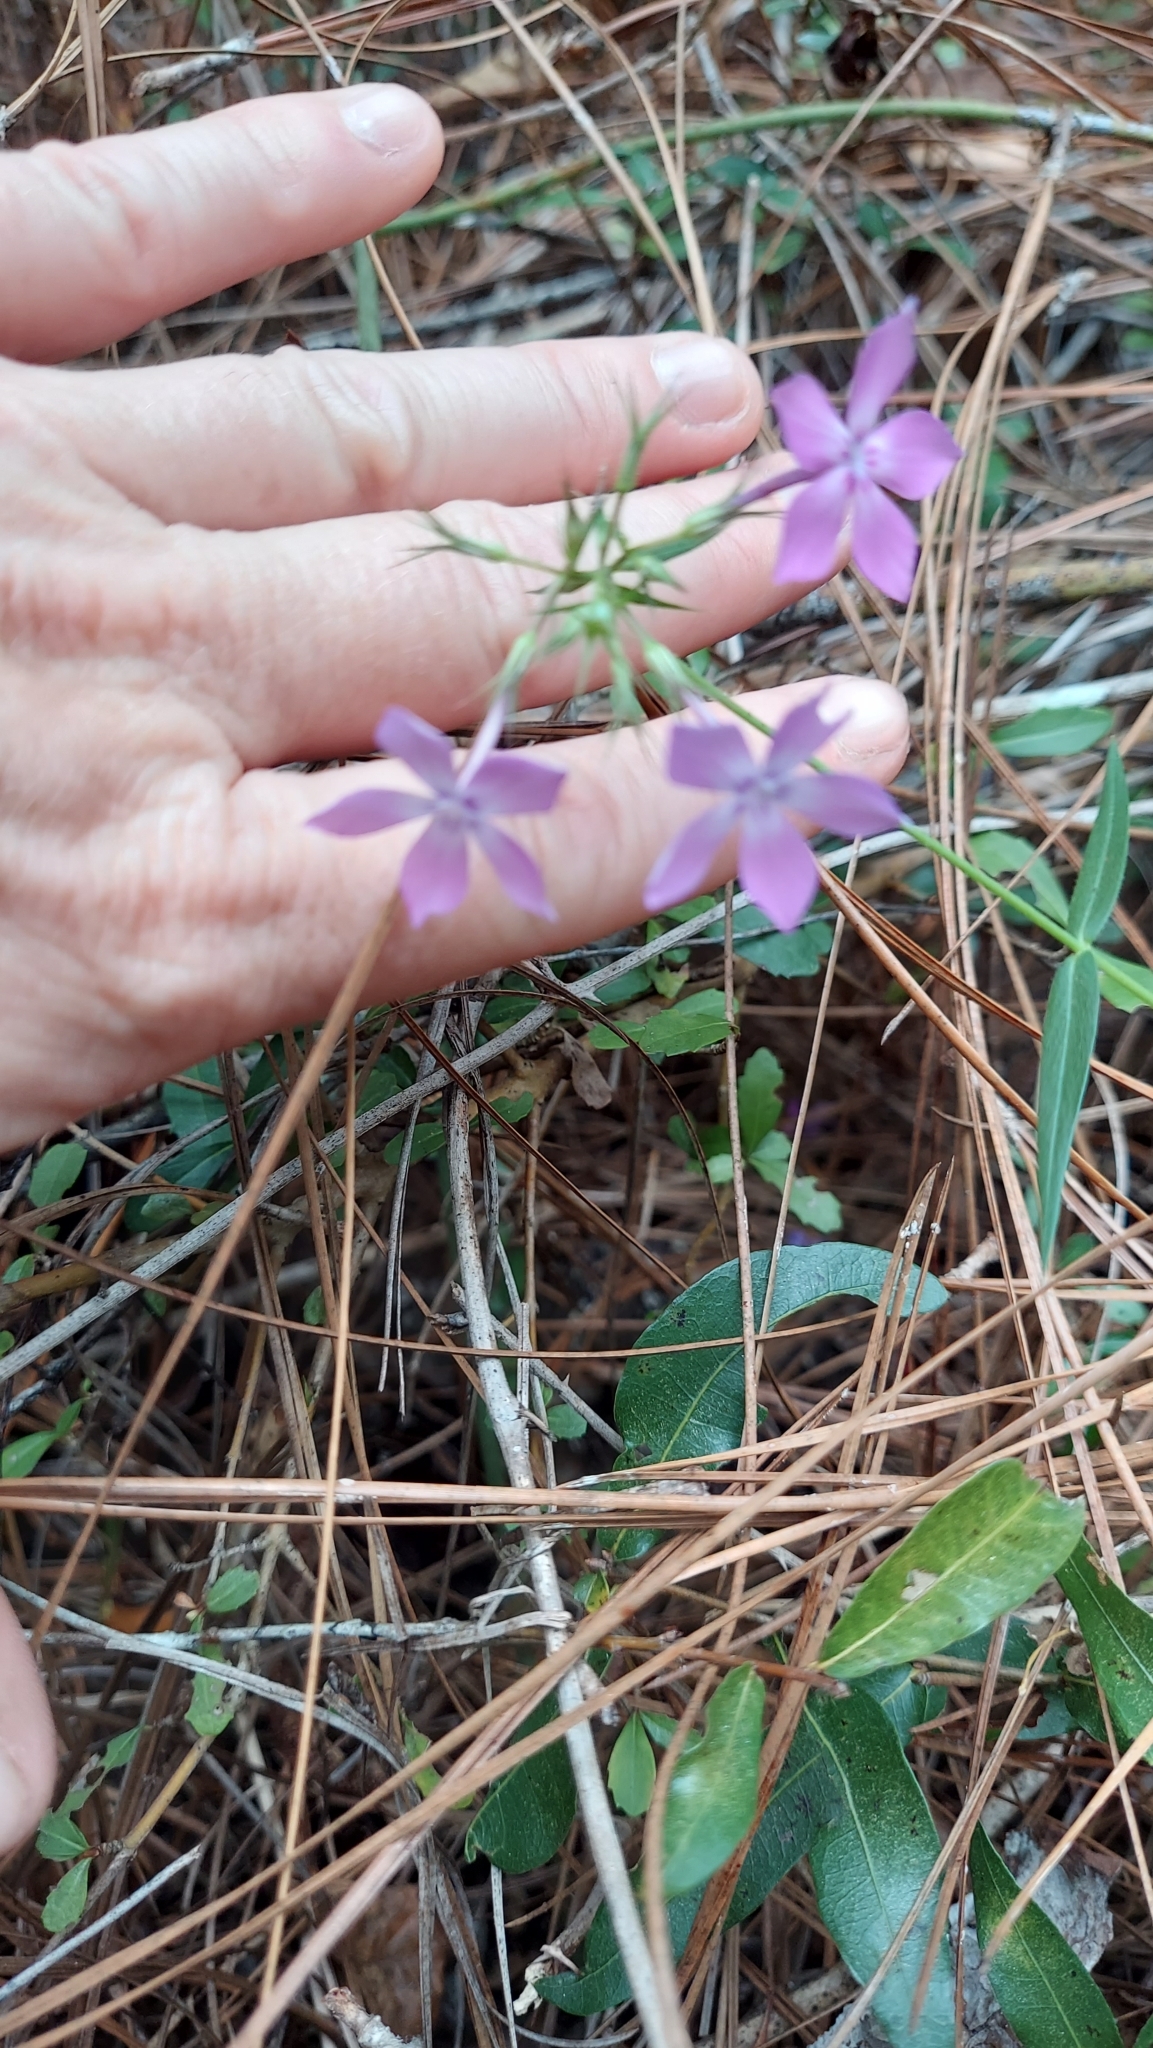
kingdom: Plantae
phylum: Tracheophyta
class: Magnoliopsida
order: Ericales
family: Polemoniaceae
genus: Phlox
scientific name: Phlox pilosa
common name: Prairie phlox
